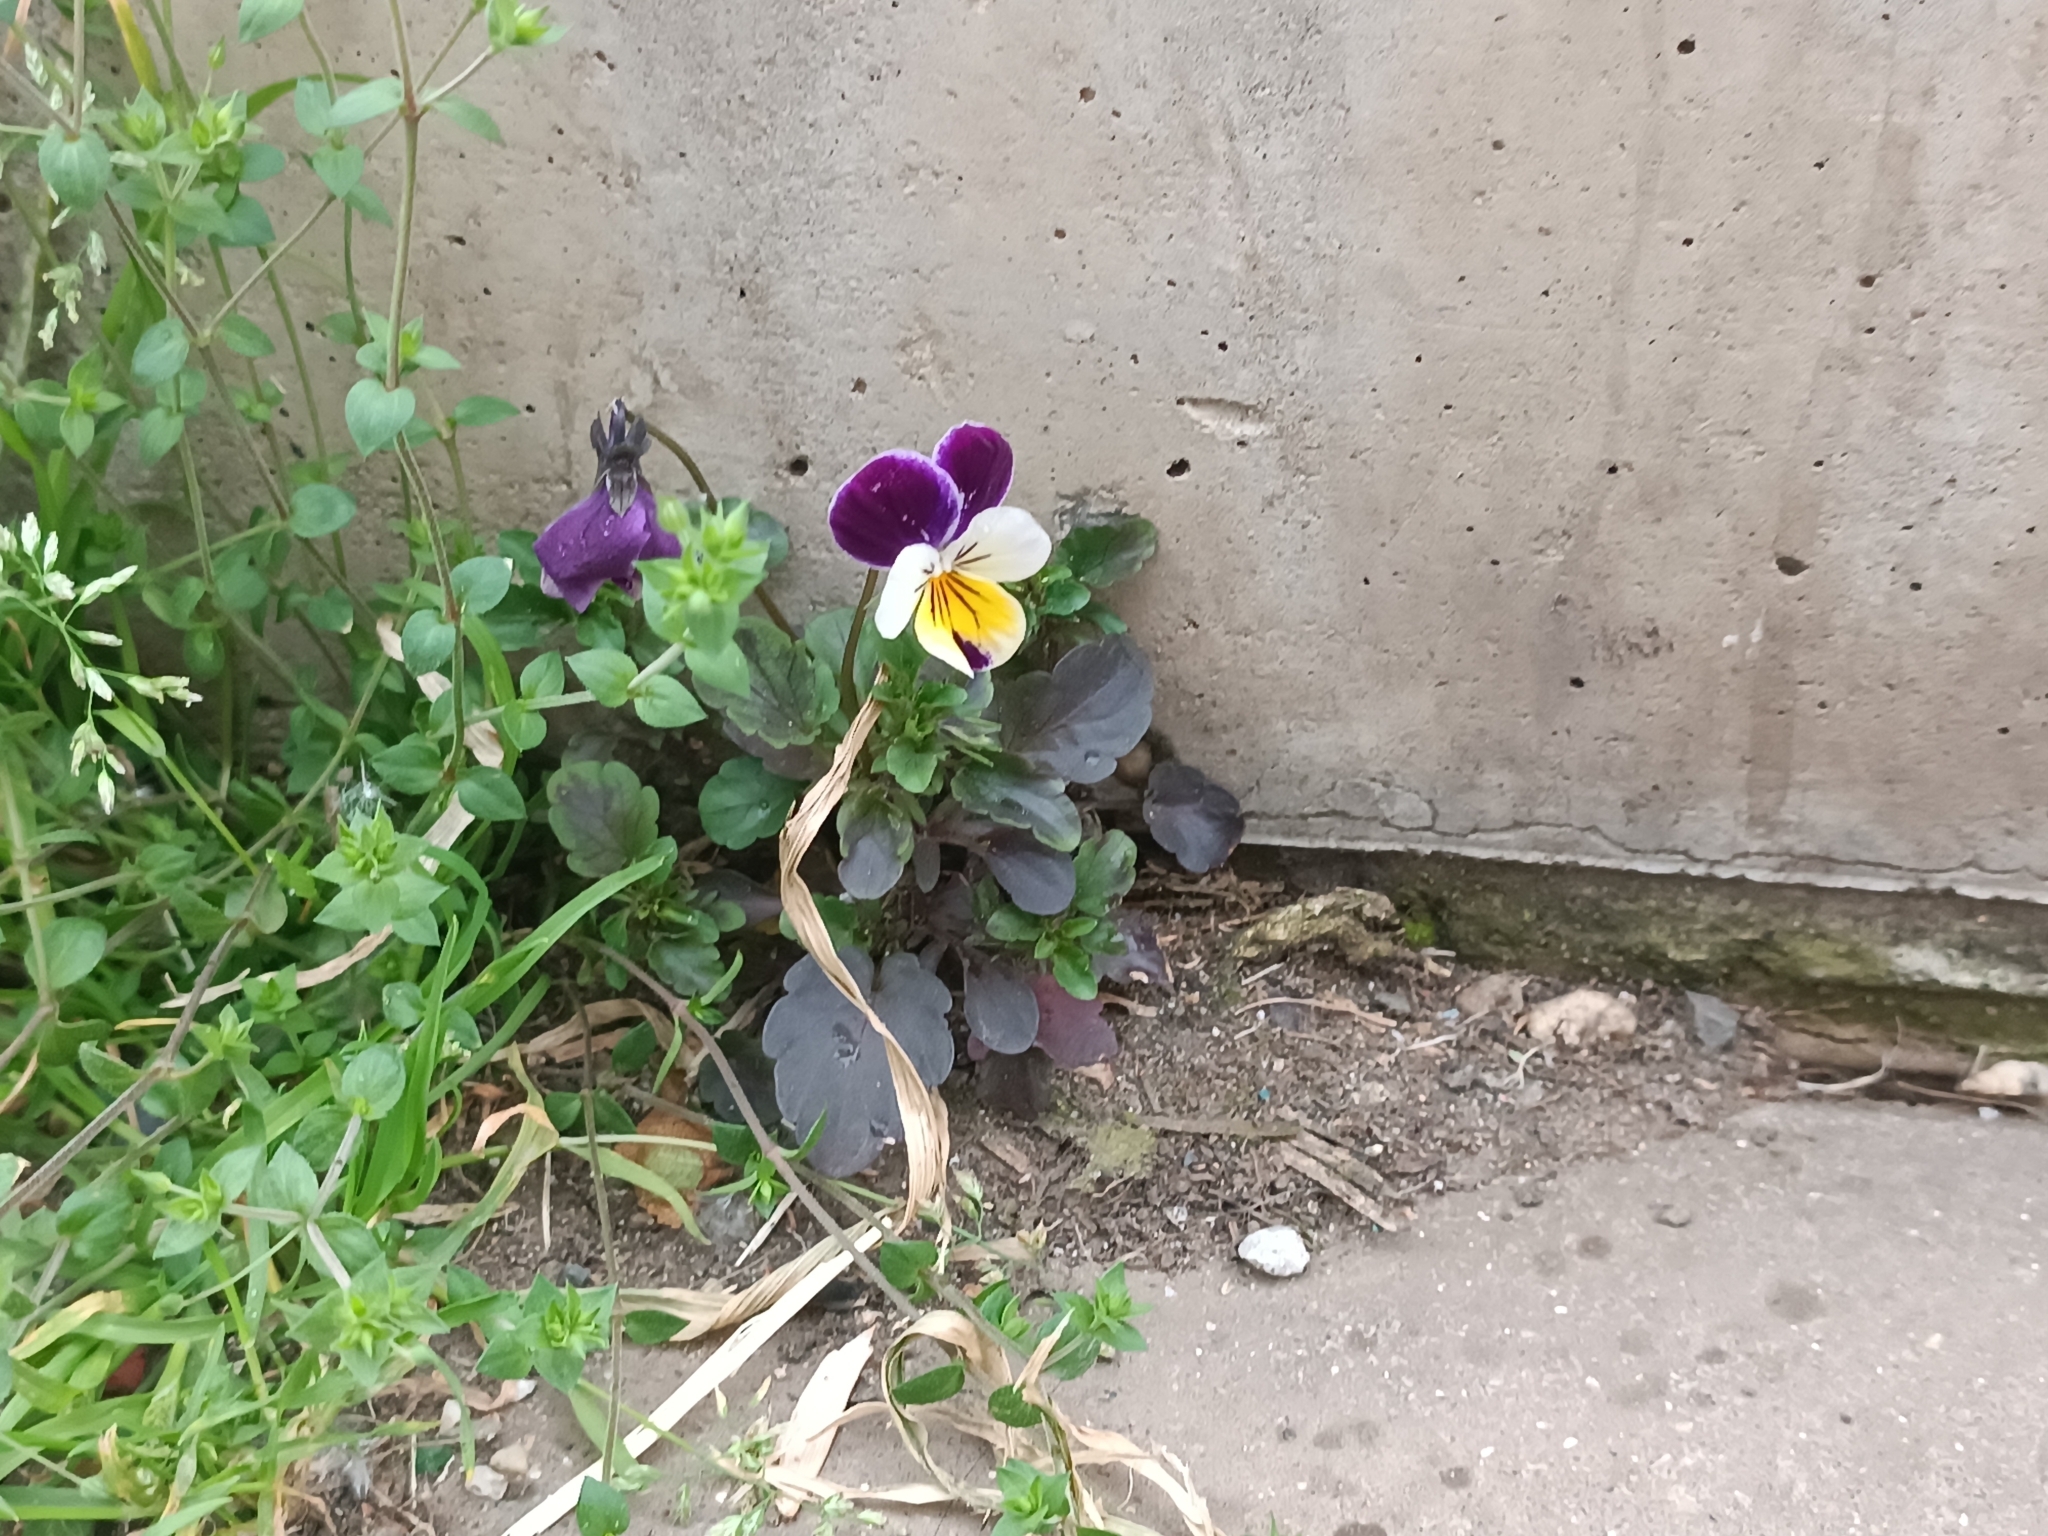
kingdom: Plantae
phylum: Tracheophyta
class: Magnoliopsida
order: Malpighiales
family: Violaceae
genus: Viola
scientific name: Viola wittrockiana
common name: Garden pansy
